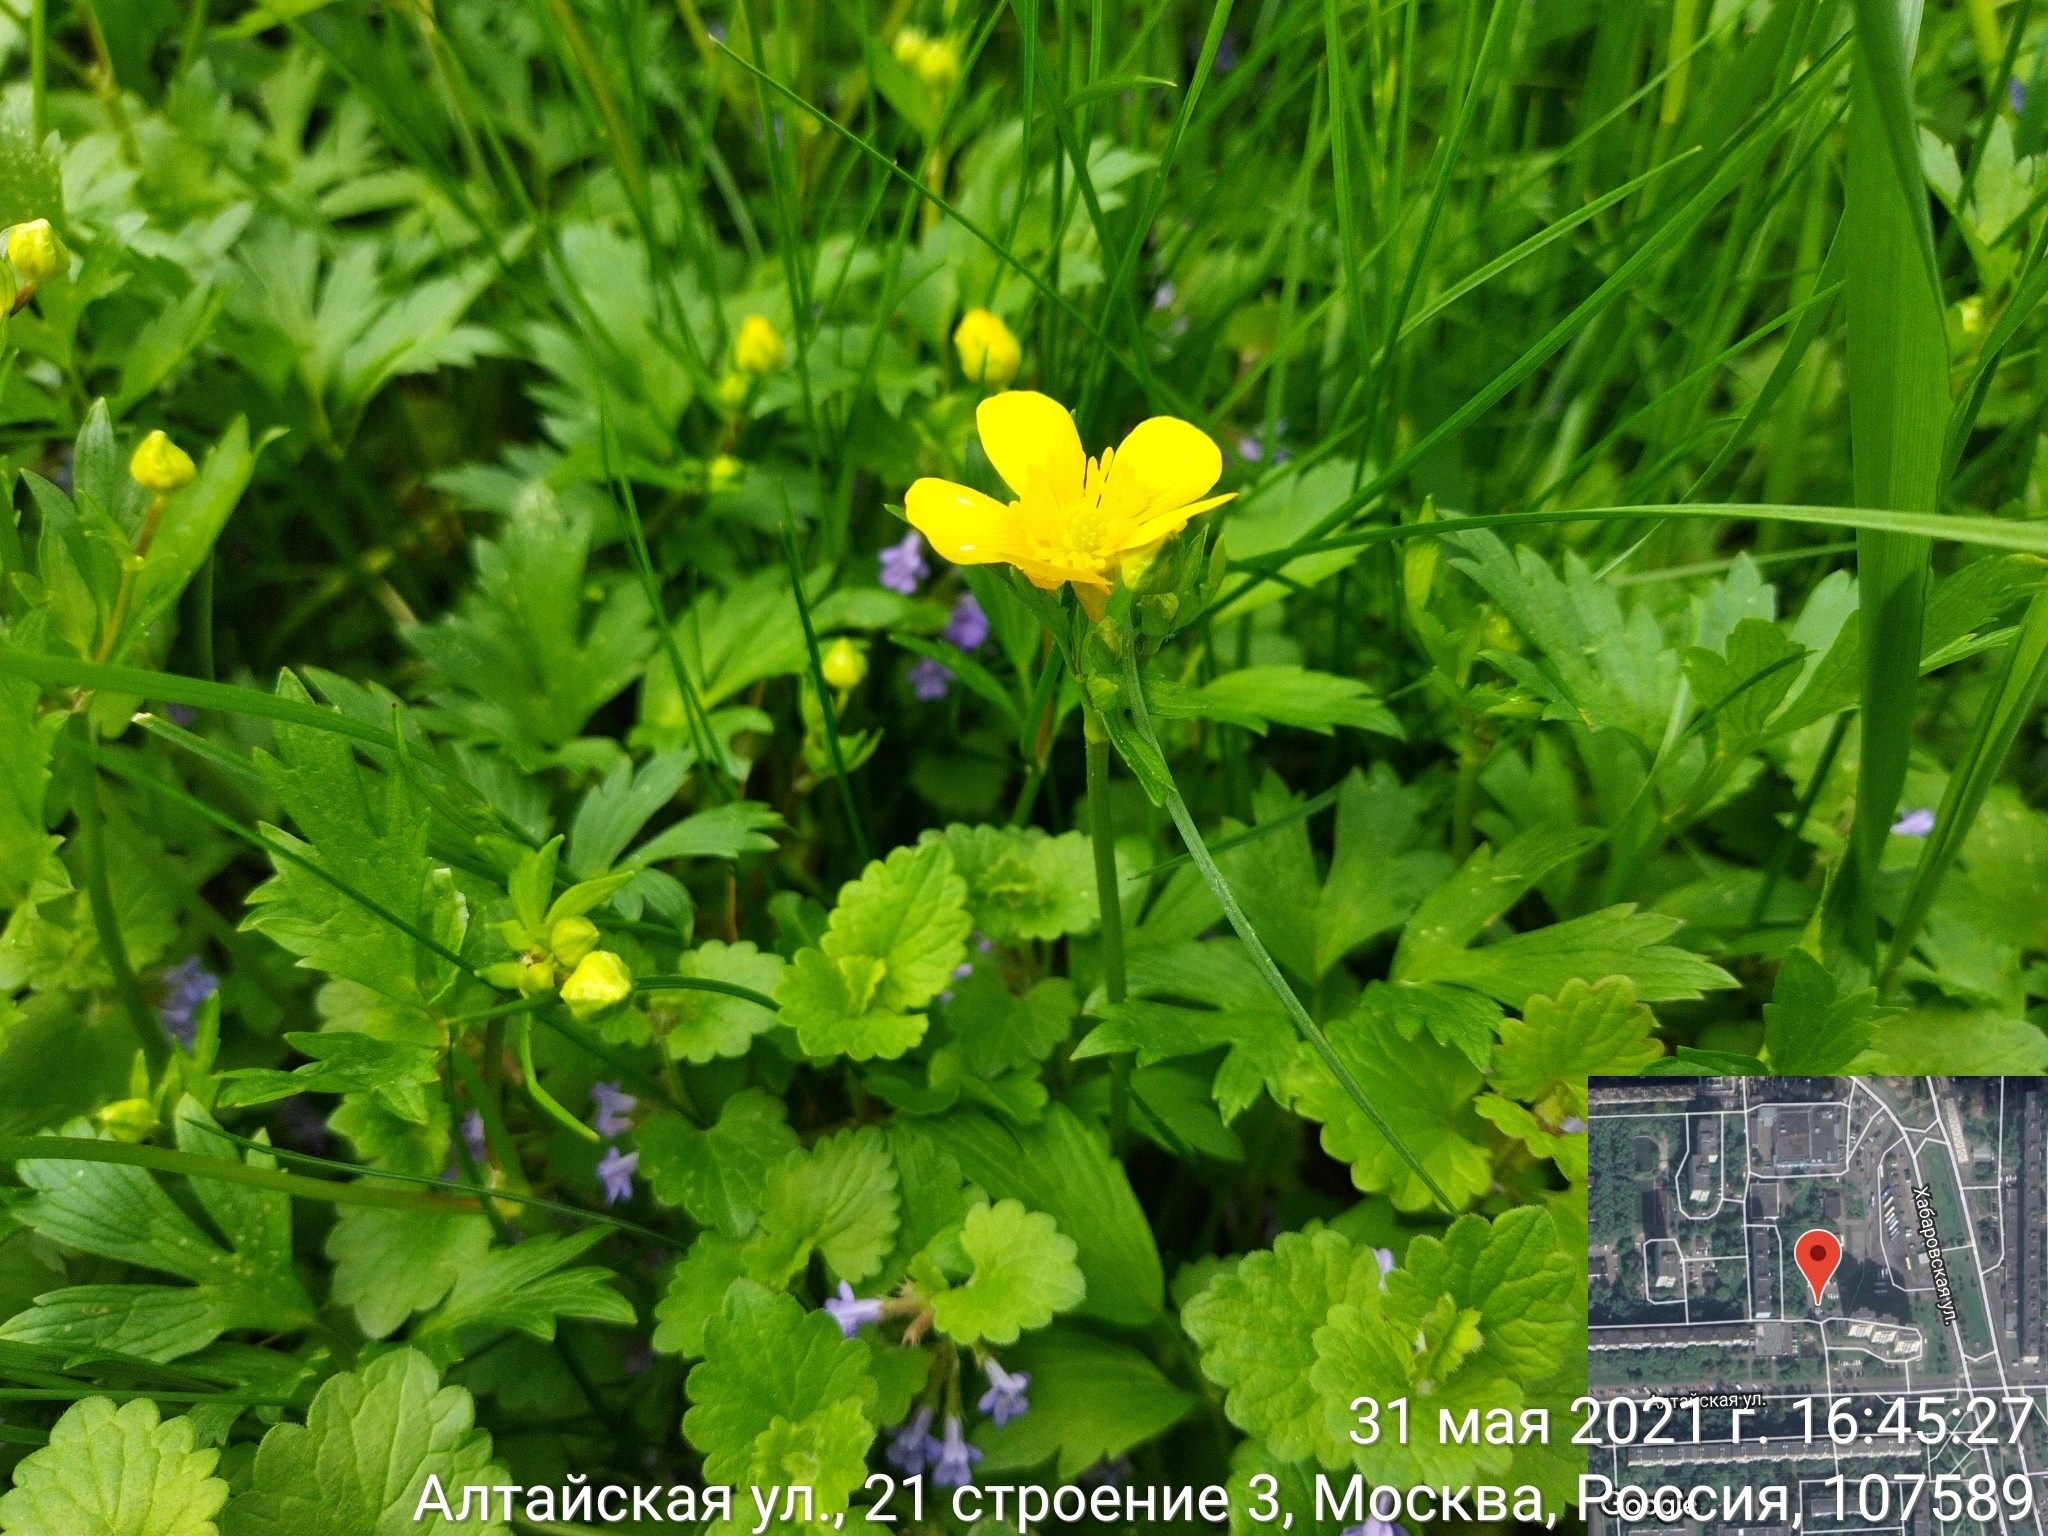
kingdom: Plantae
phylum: Tracheophyta
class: Magnoliopsida
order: Ranunculales
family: Ranunculaceae
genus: Ranunculus
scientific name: Ranunculus repens
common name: Creeping buttercup
